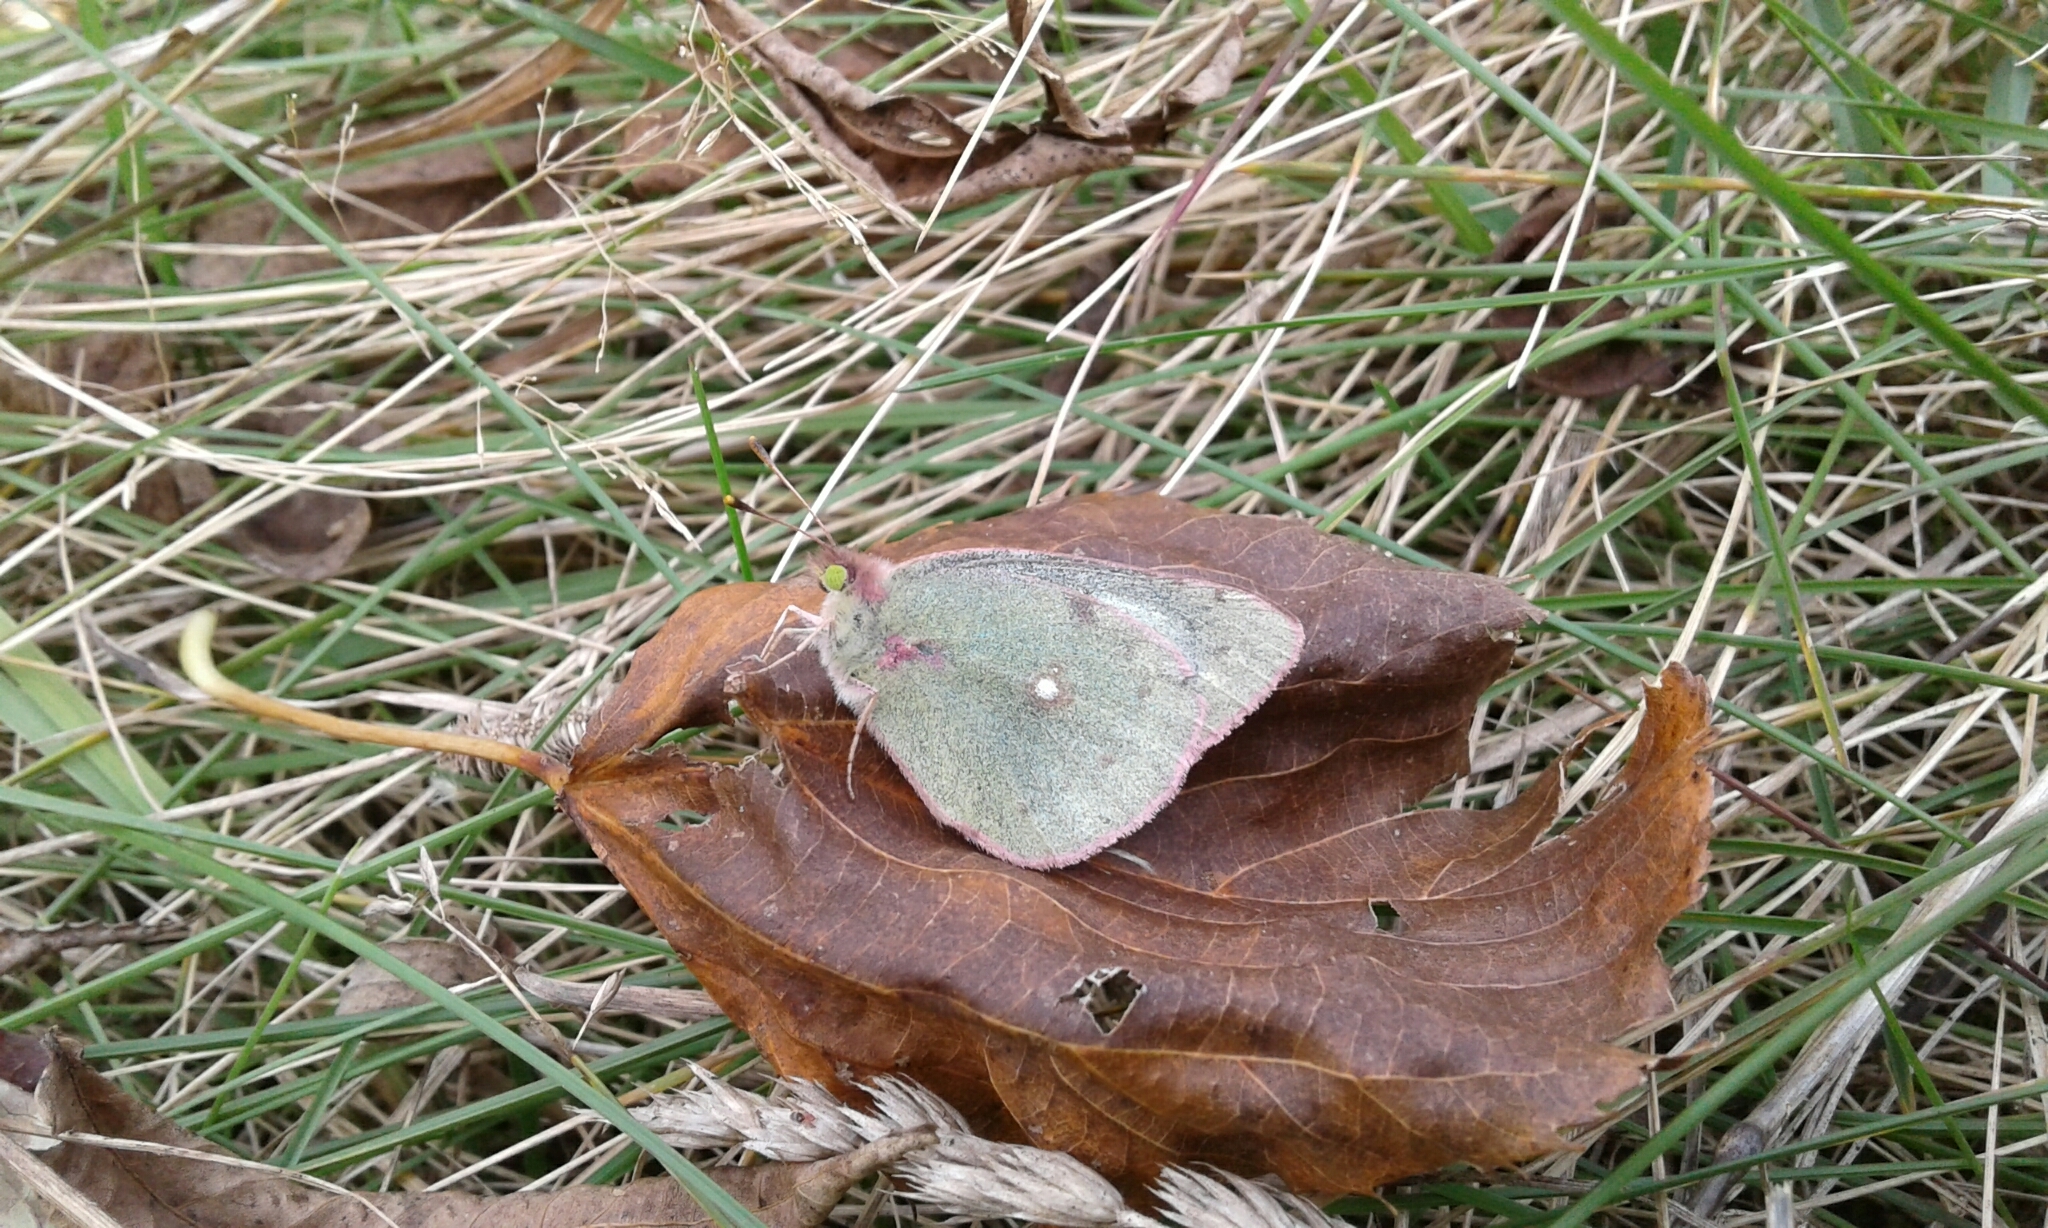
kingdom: Animalia
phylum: Arthropoda
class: Insecta
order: Lepidoptera
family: Pieridae
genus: Colias
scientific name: Colias philodice
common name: Clouded sulphur
